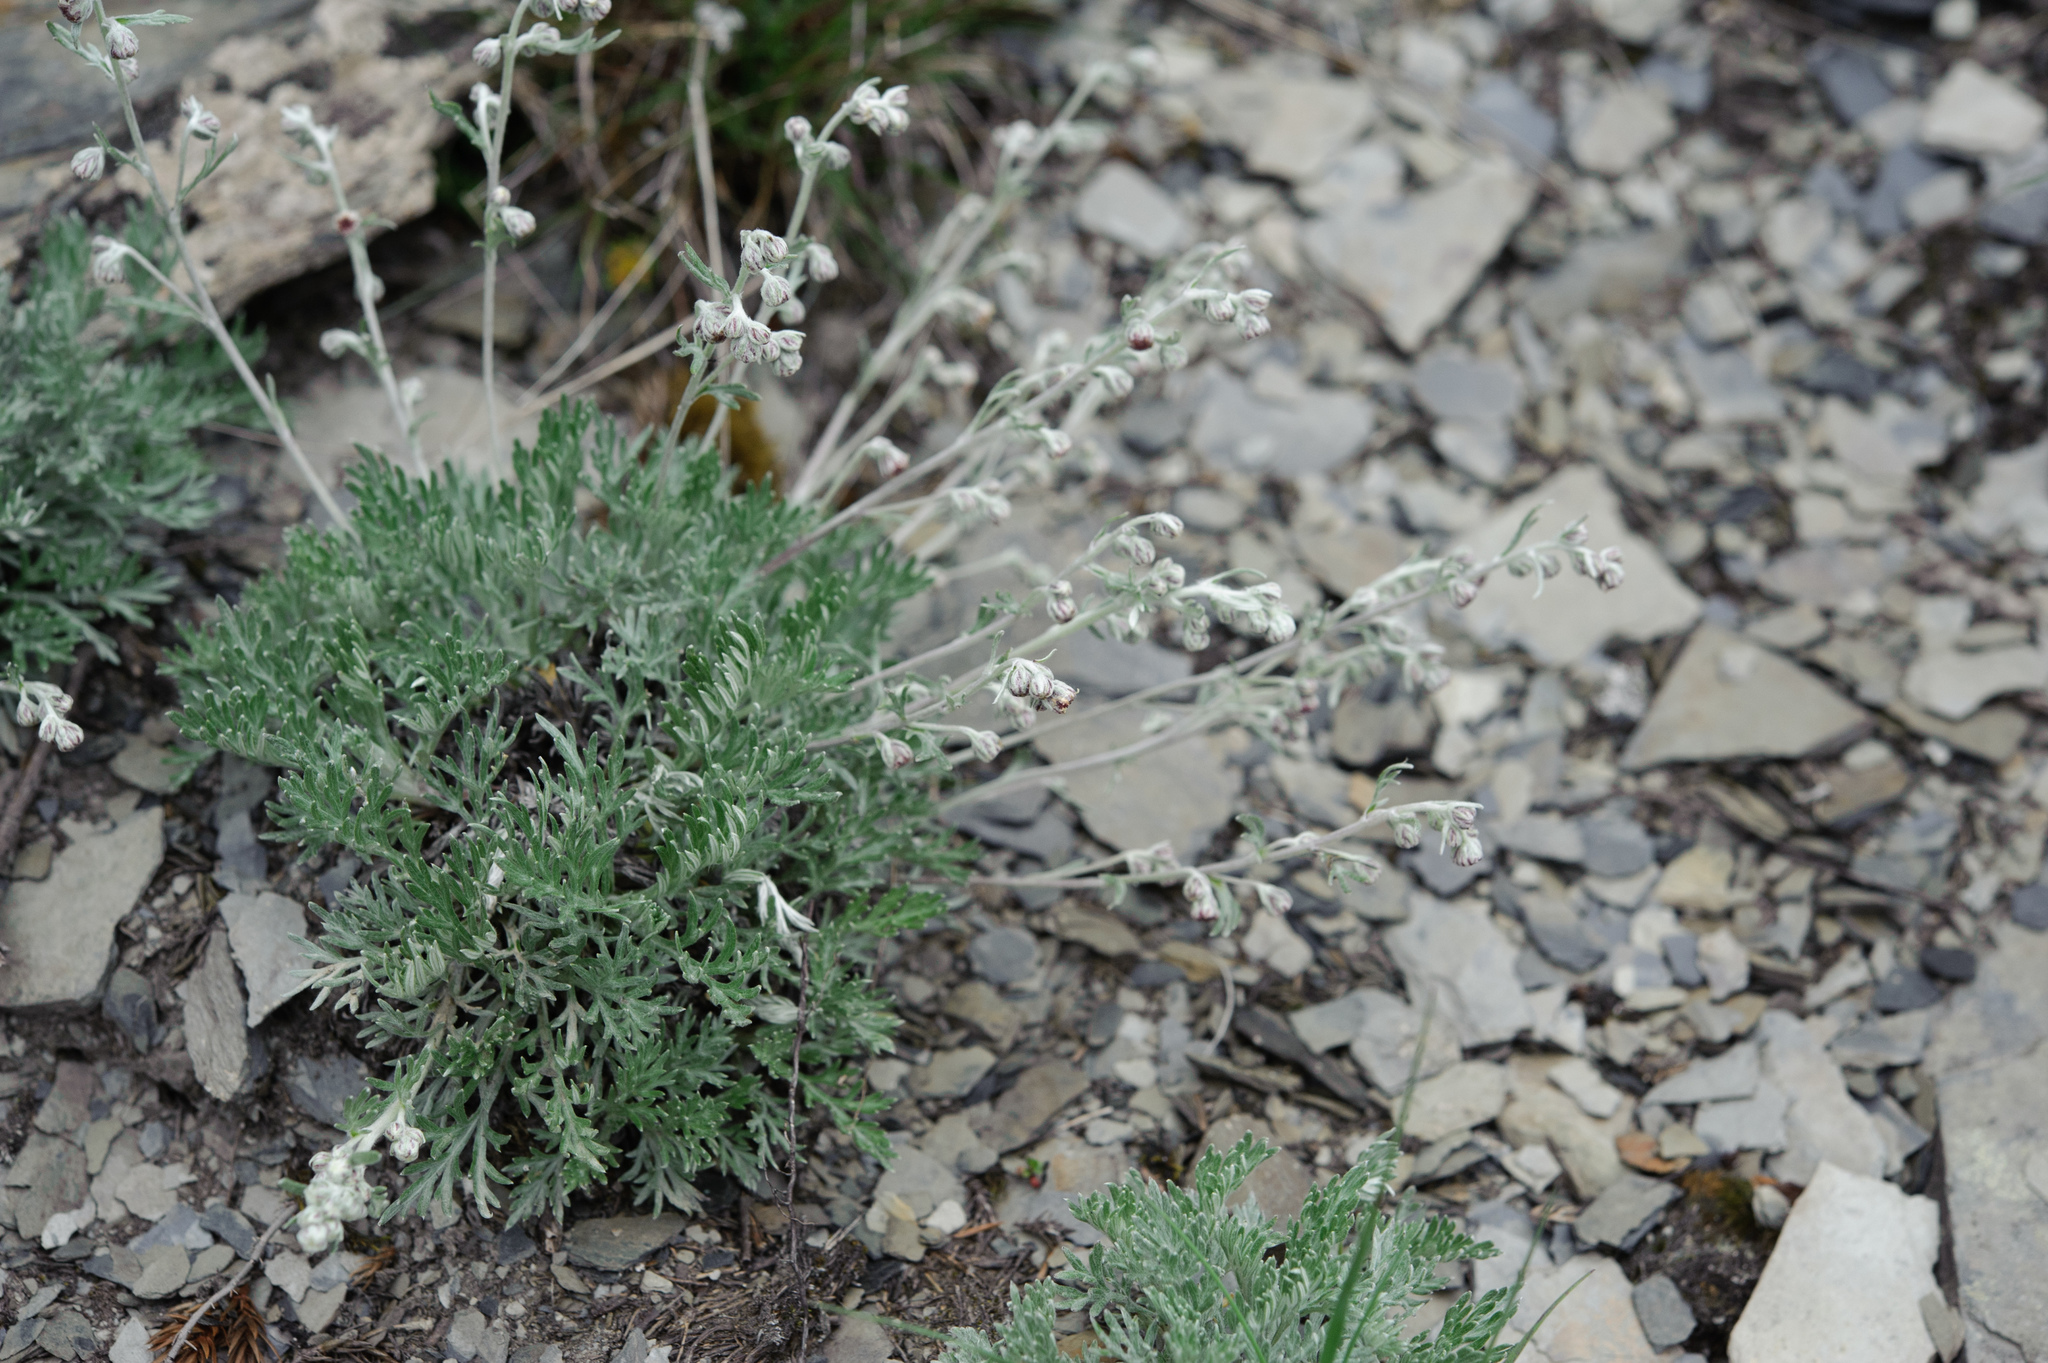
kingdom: Plantae
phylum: Tracheophyta
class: Magnoliopsida
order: Asterales
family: Asteraceae
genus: Artemisia
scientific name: Artemisia kawakamii
